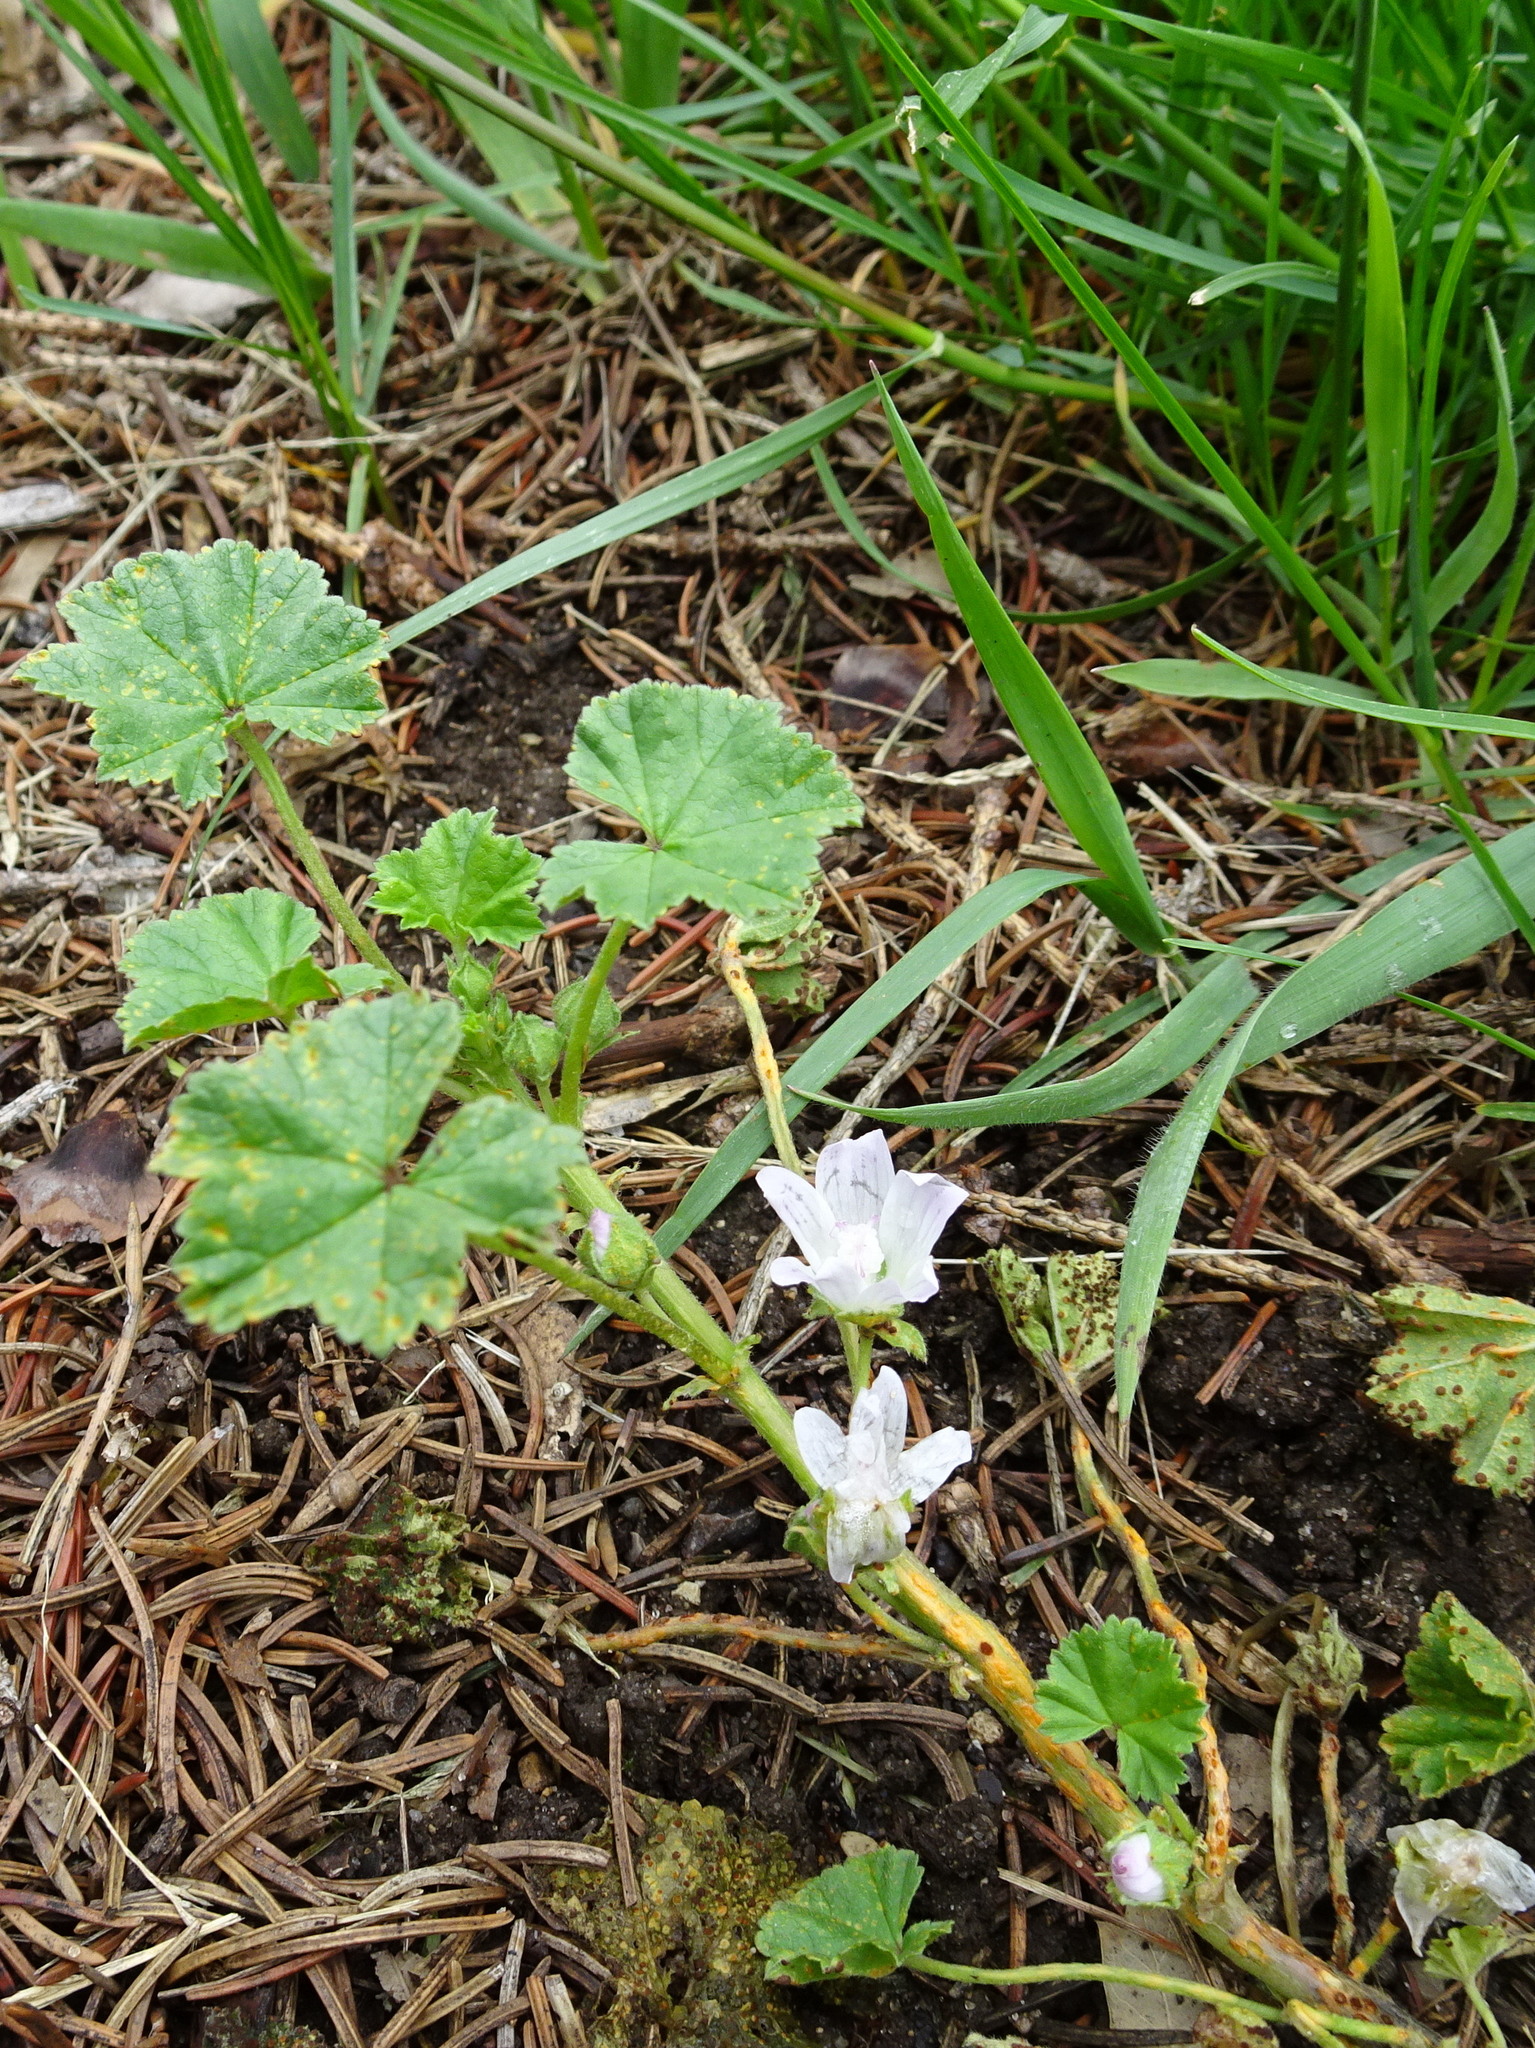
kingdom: Plantae
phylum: Tracheophyta
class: Magnoliopsida
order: Malvales
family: Malvaceae
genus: Malva
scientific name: Malva neglecta
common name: Common mallow
